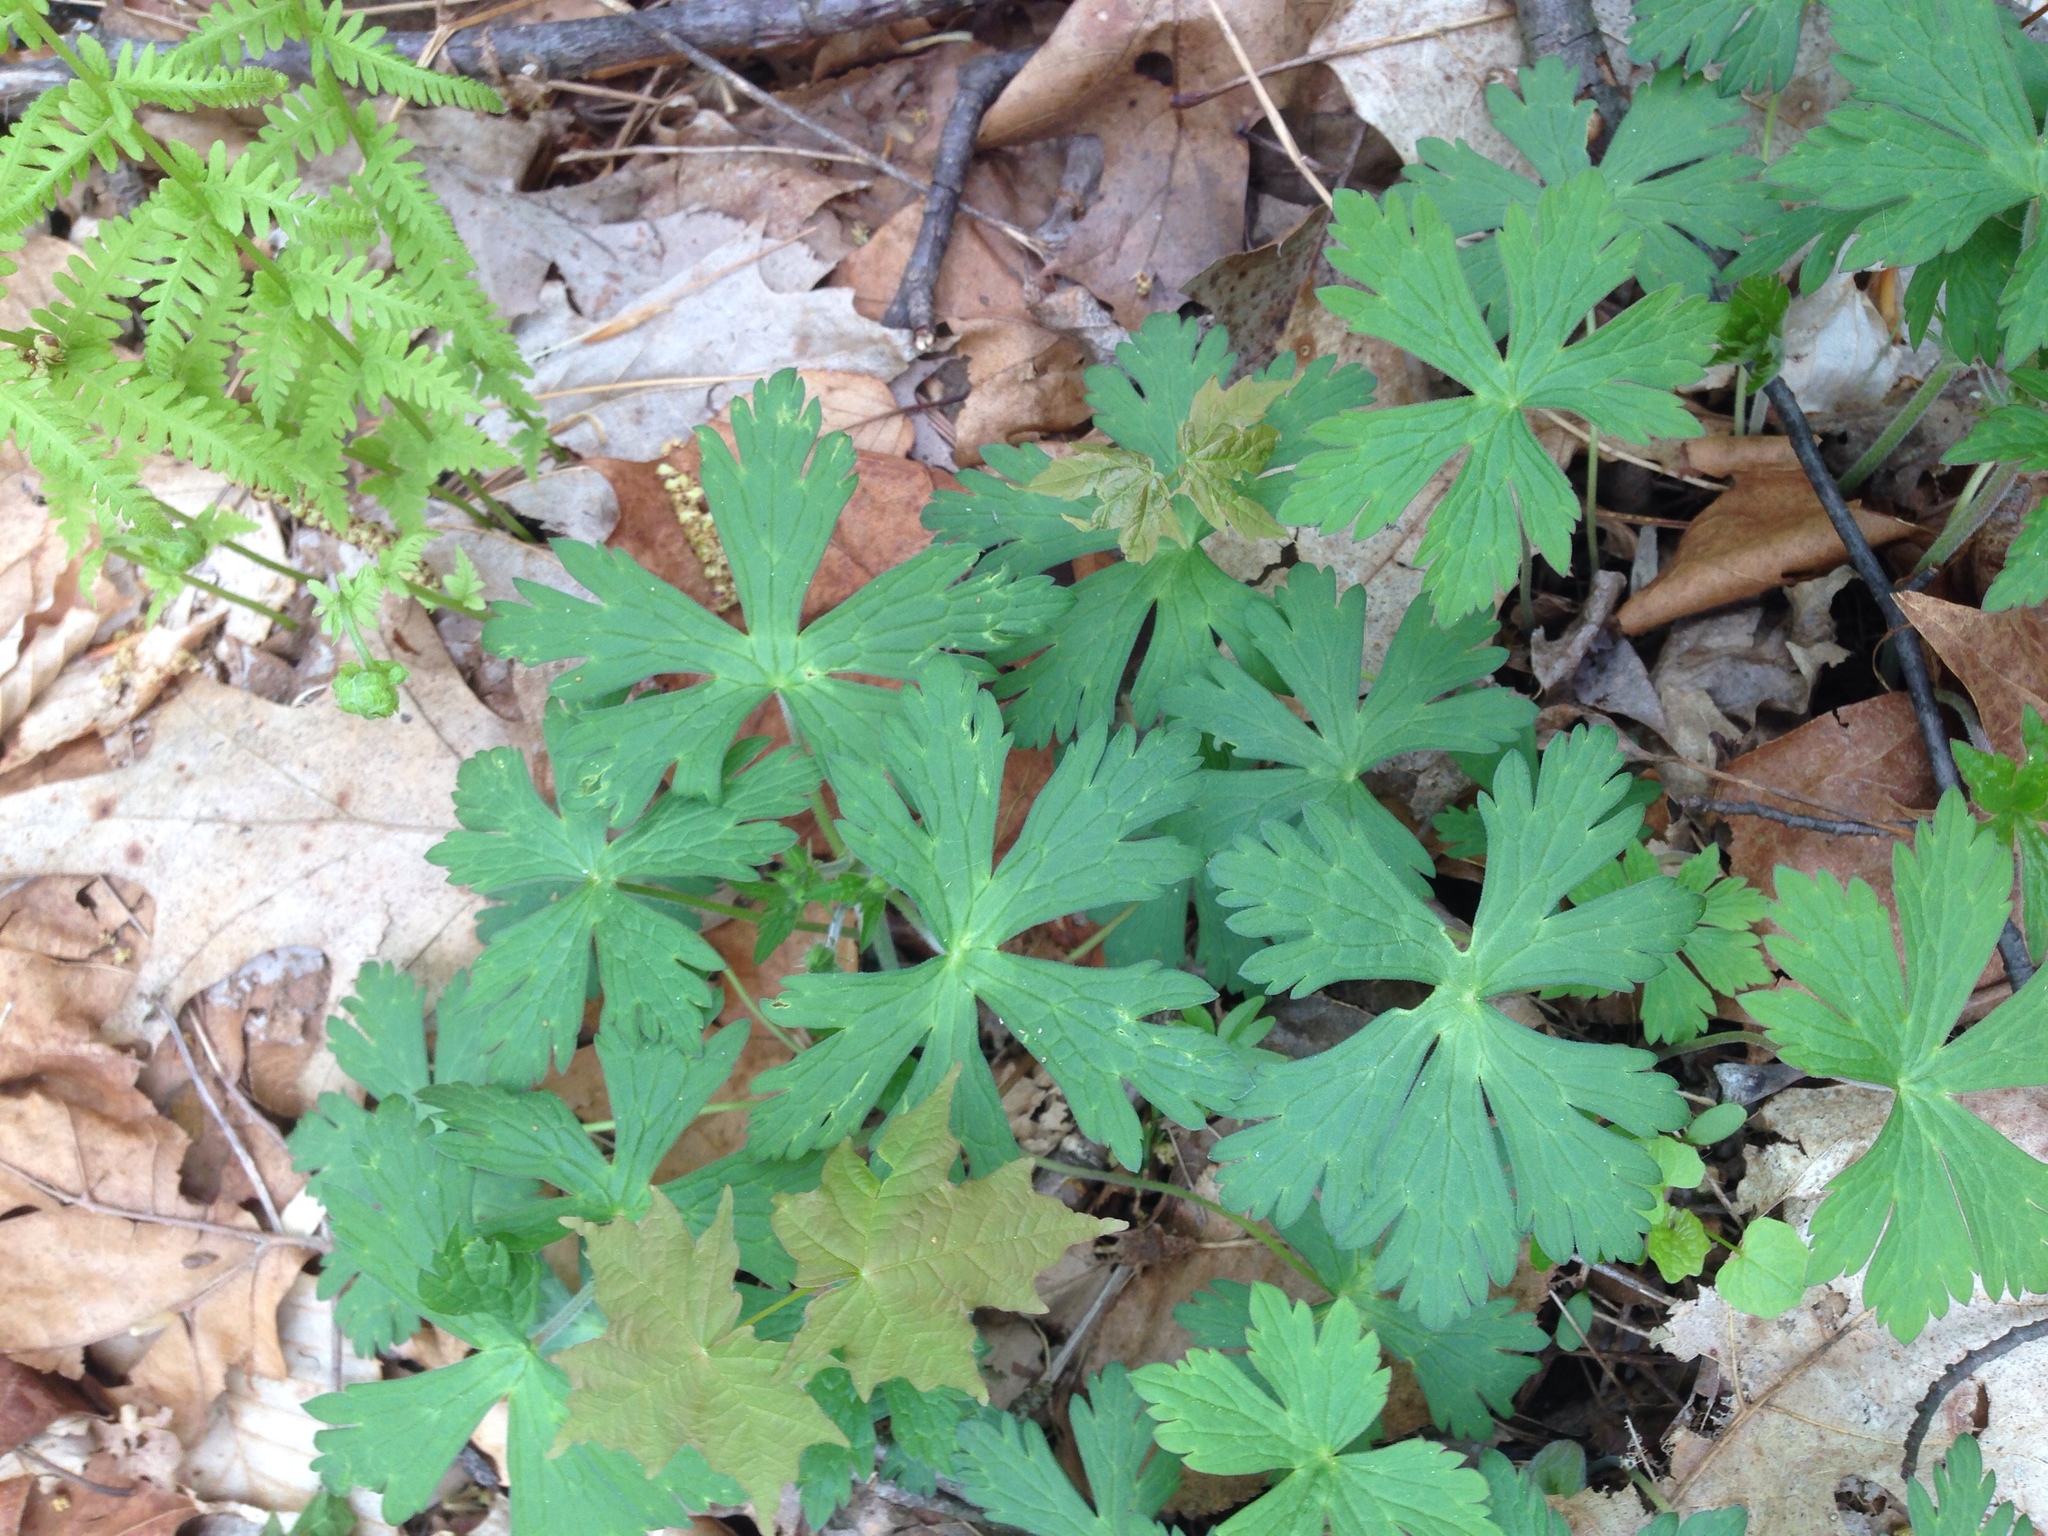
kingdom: Plantae
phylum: Tracheophyta
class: Magnoliopsida
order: Geraniales
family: Geraniaceae
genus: Geranium
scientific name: Geranium maculatum
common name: Spotted geranium
